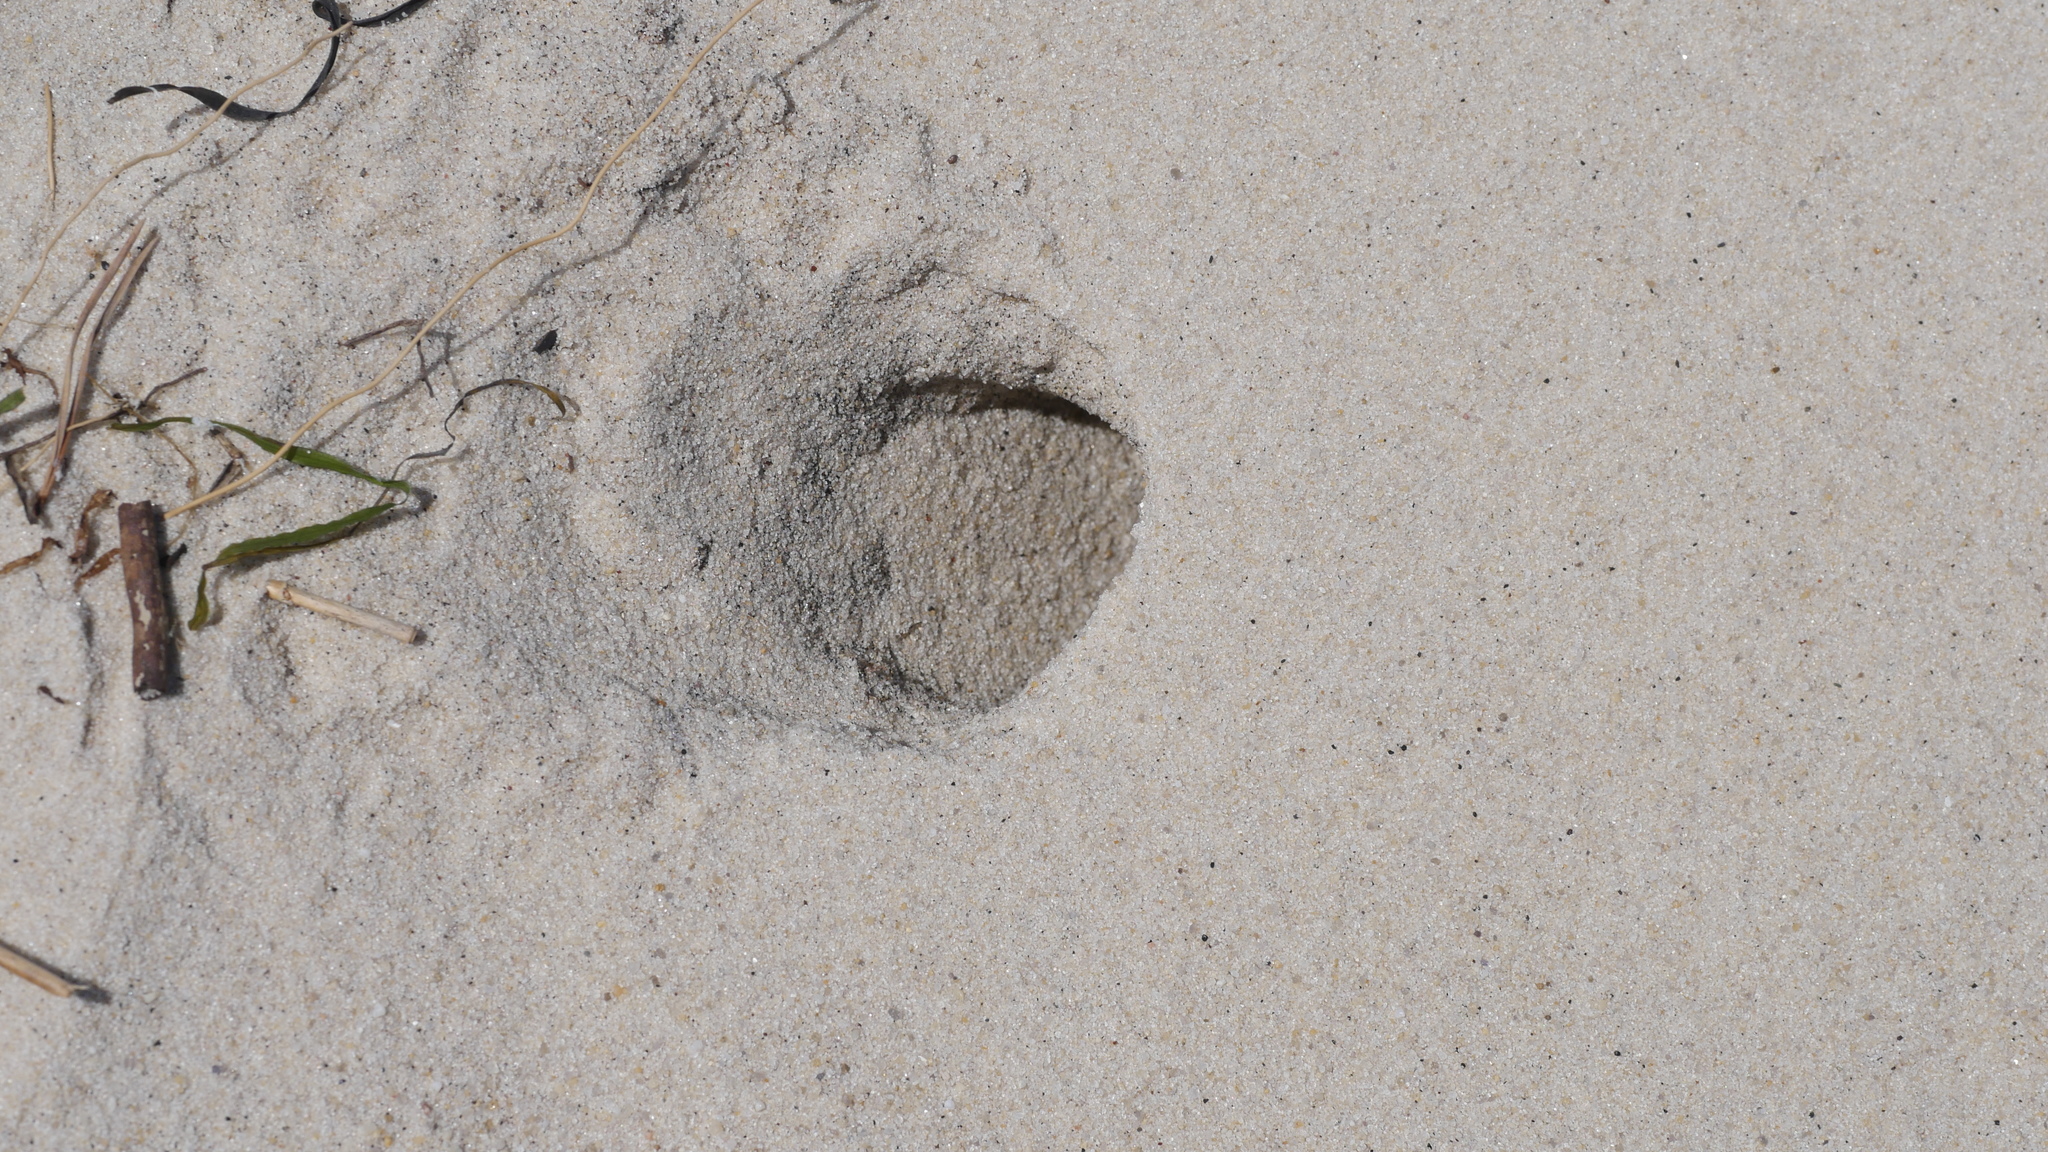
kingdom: Animalia
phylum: Arthropoda
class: Malacostraca
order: Decapoda
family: Ocypodidae
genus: Ocypode
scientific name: Ocypode quadrata
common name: Ghost crab
